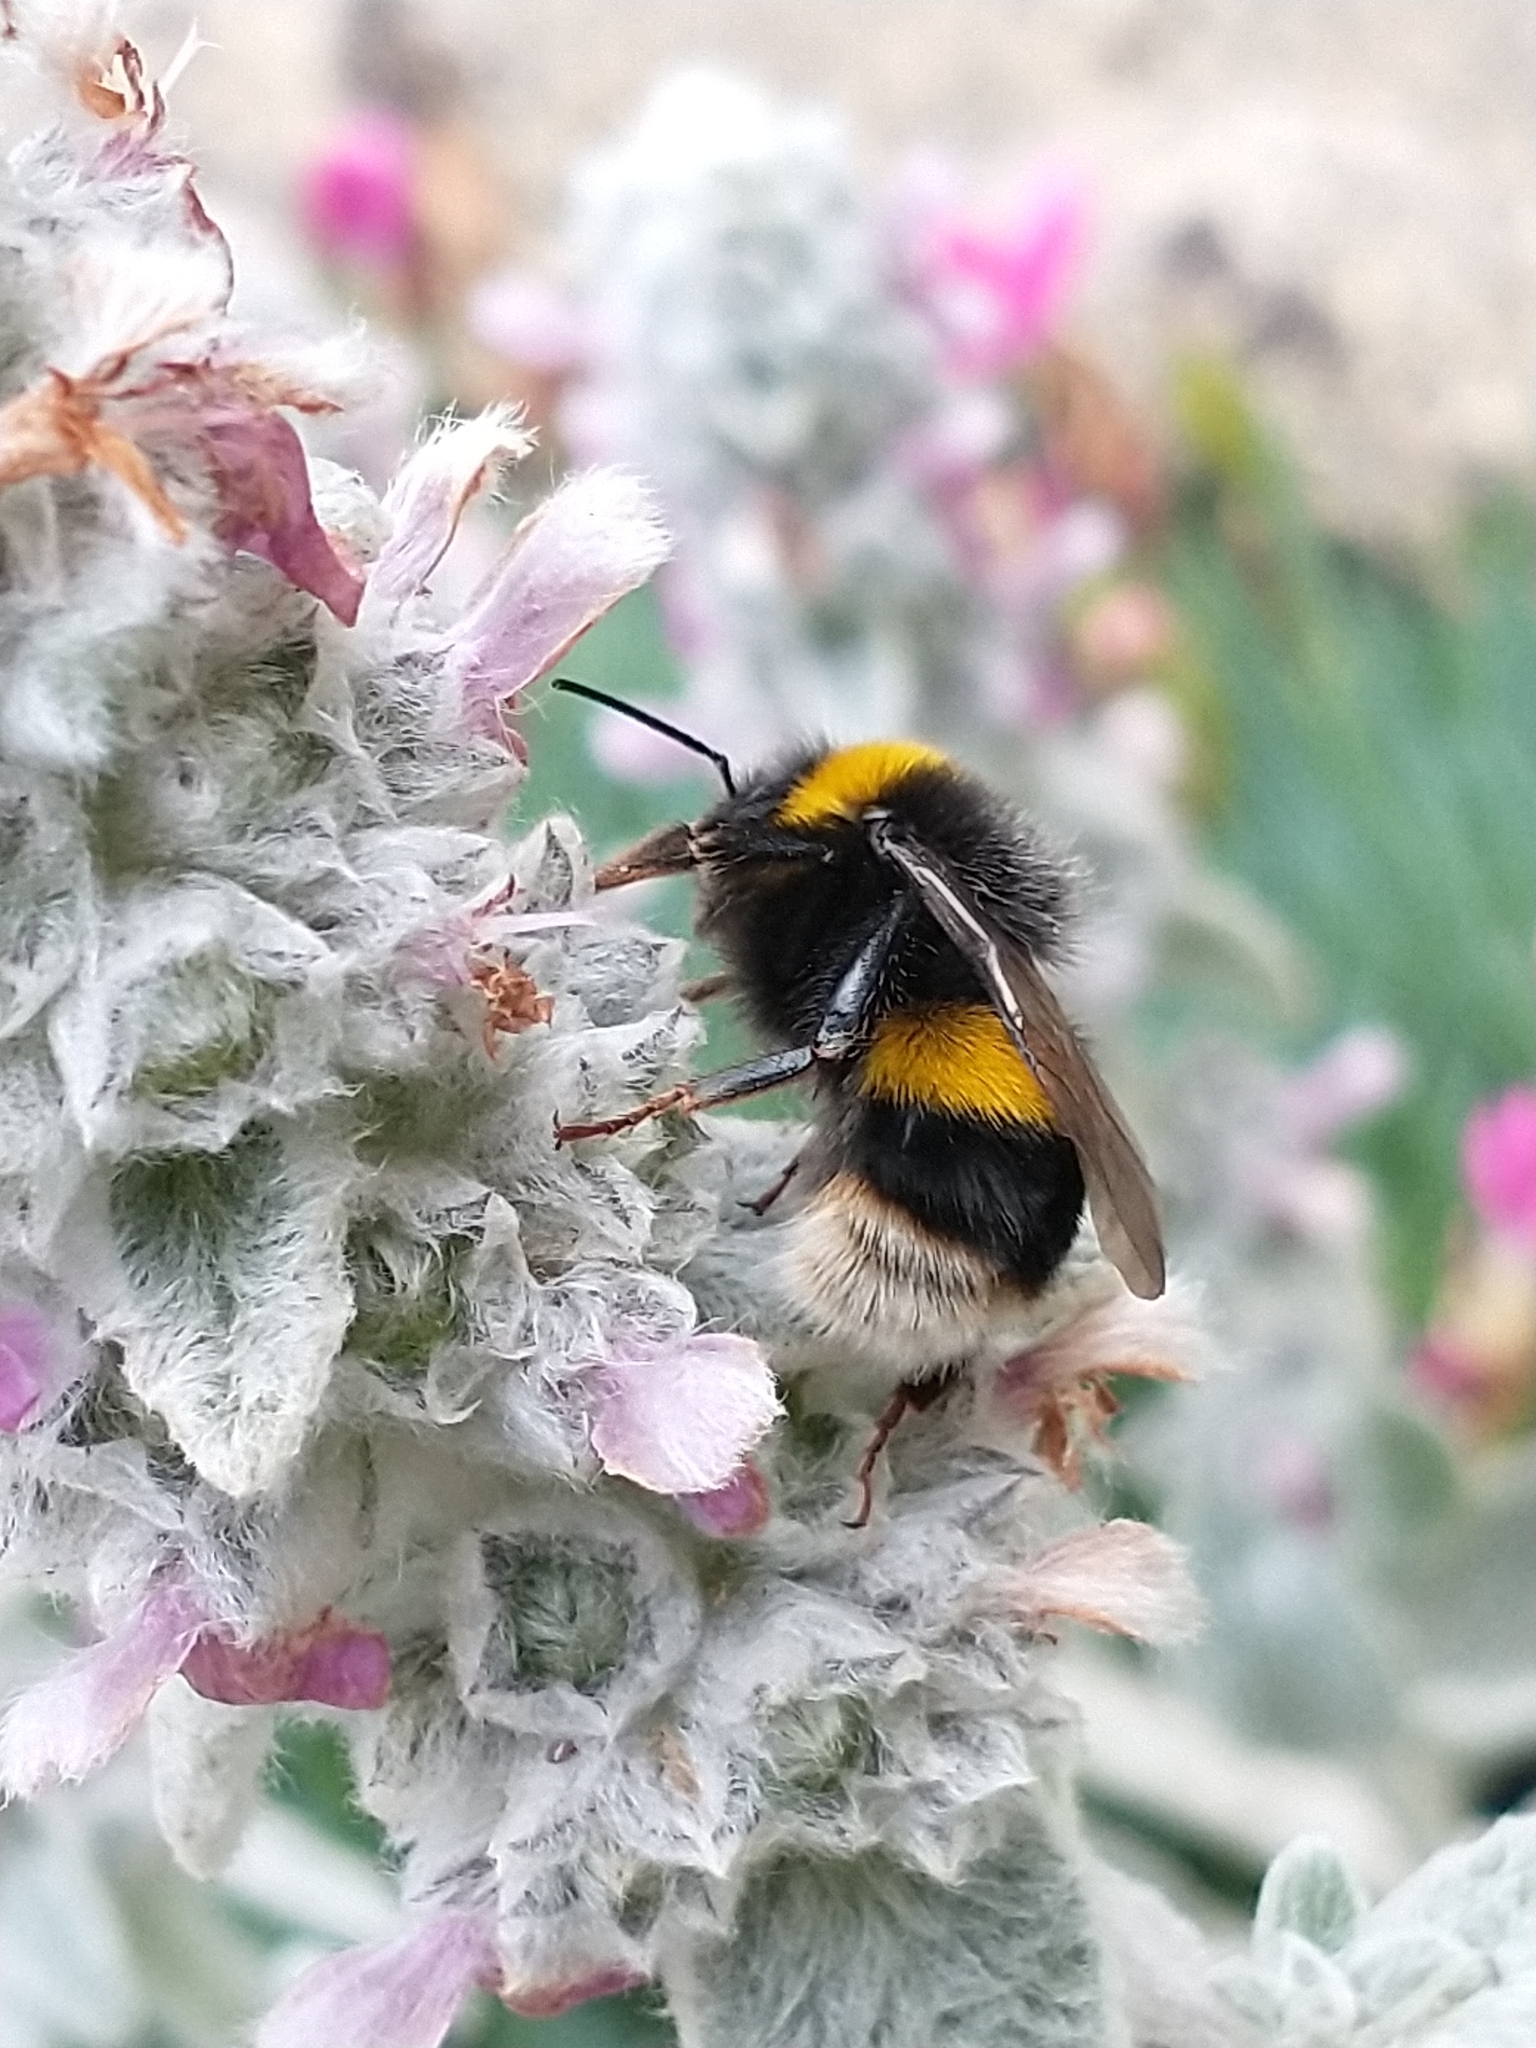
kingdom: Animalia
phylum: Arthropoda
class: Insecta
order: Hymenoptera
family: Apidae
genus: Bombus
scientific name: Bombus terrestris
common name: Buff-tailed bumblebee
